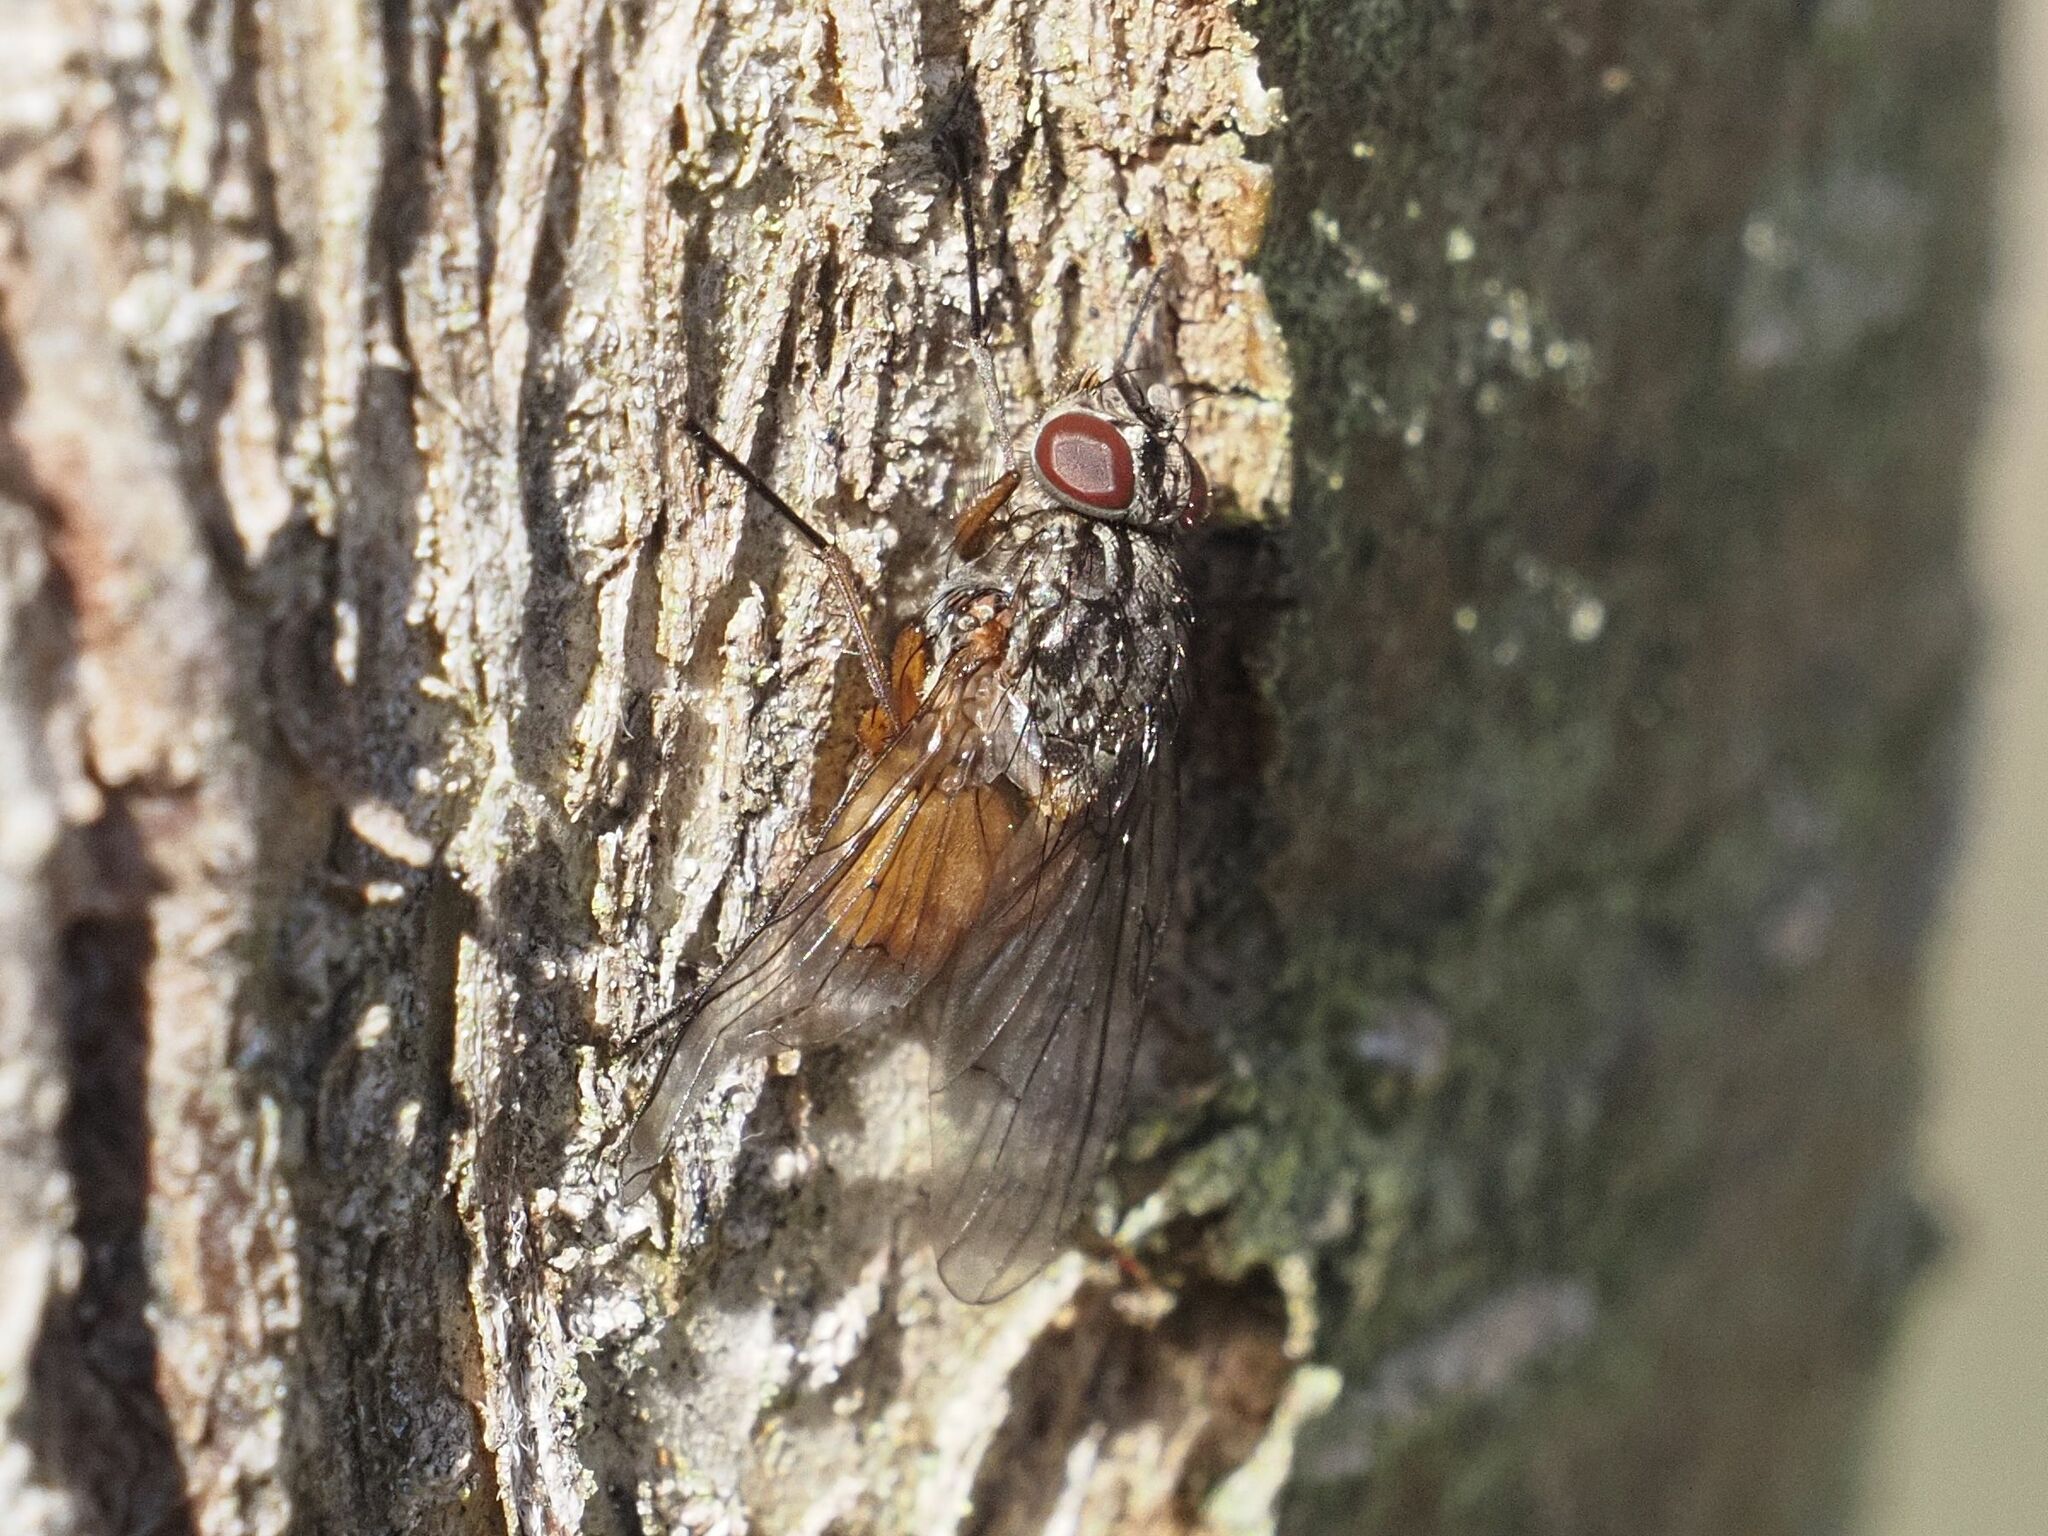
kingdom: Animalia
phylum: Arthropoda
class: Insecta
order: Diptera
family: Muscidae
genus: Phaonia
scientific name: Phaonia subventa
